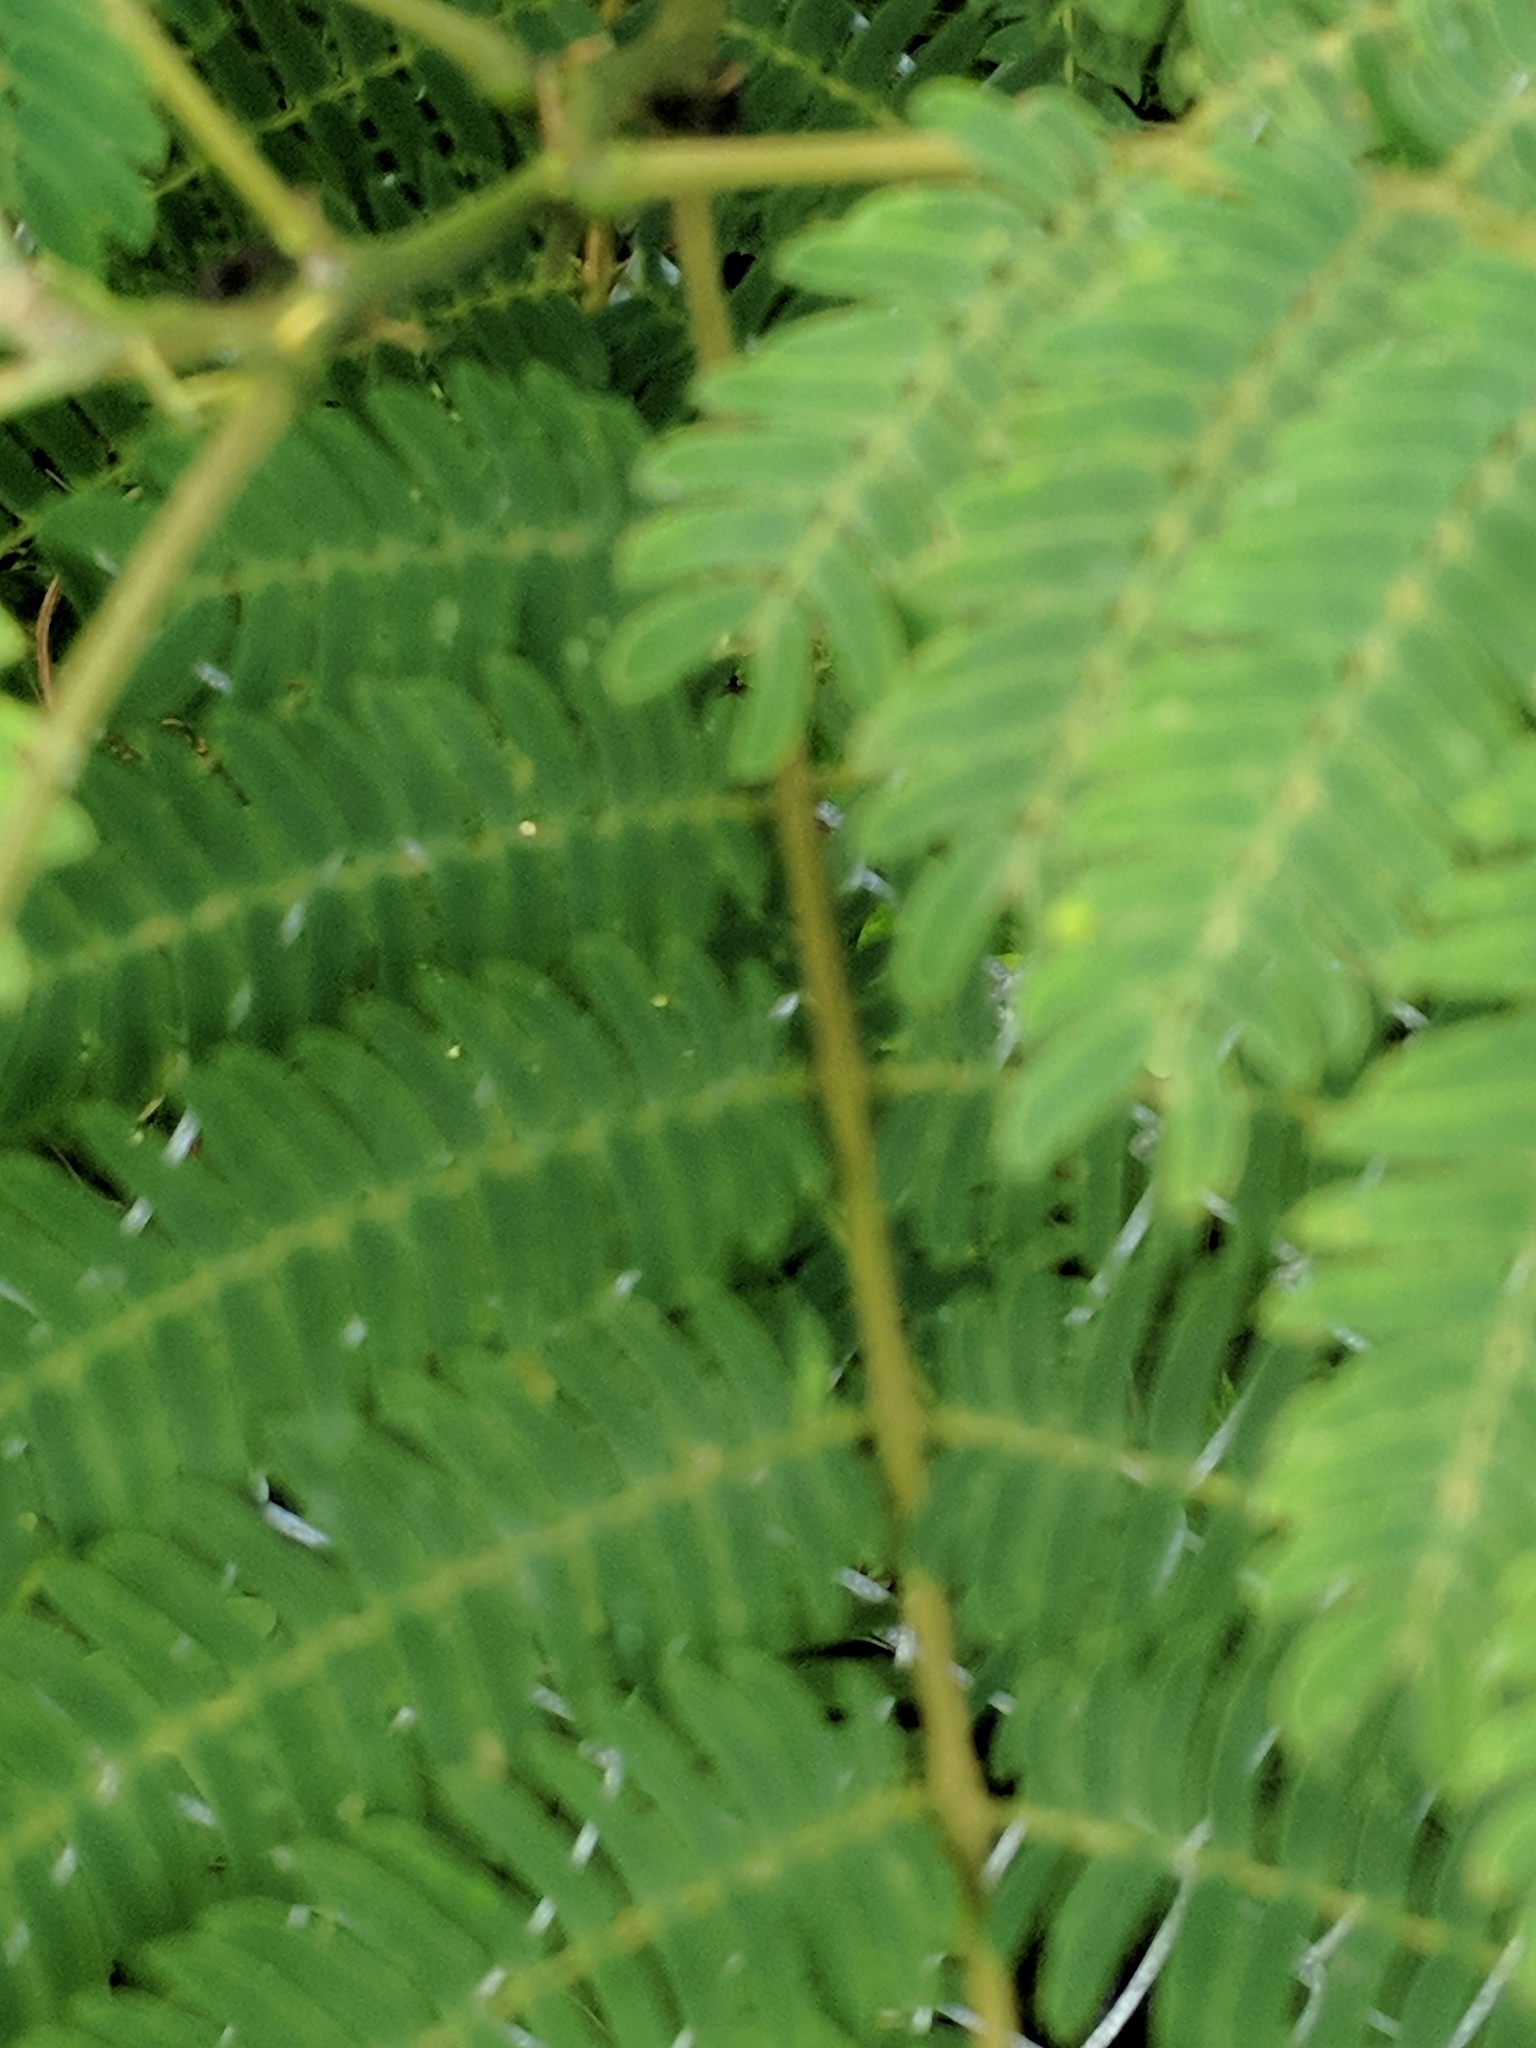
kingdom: Plantae
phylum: Tracheophyta
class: Magnoliopsida
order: Fabales
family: Fabaceae
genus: Albizia
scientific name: Albizia julibrissin
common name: Silktree
